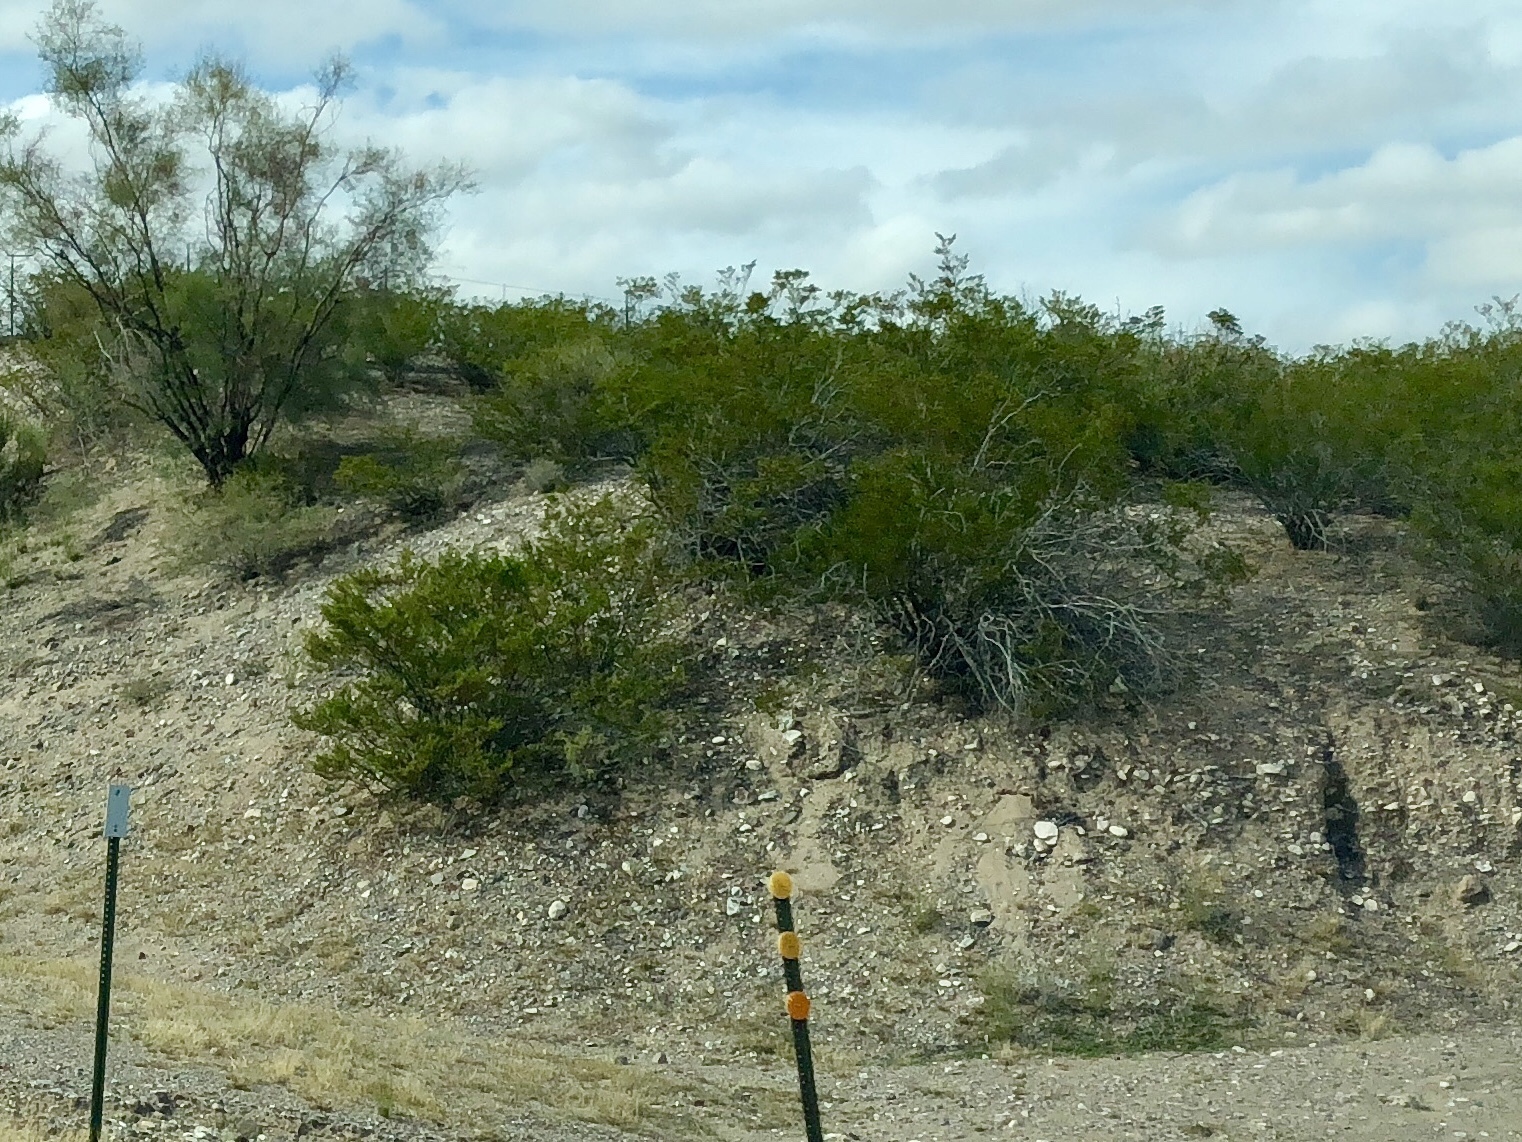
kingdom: Plantae
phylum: Tracheophyta
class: Magnoliopsida
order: Zygophyllales
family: Zygophyllaceae
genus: Larrea
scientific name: Larrea tridentata
